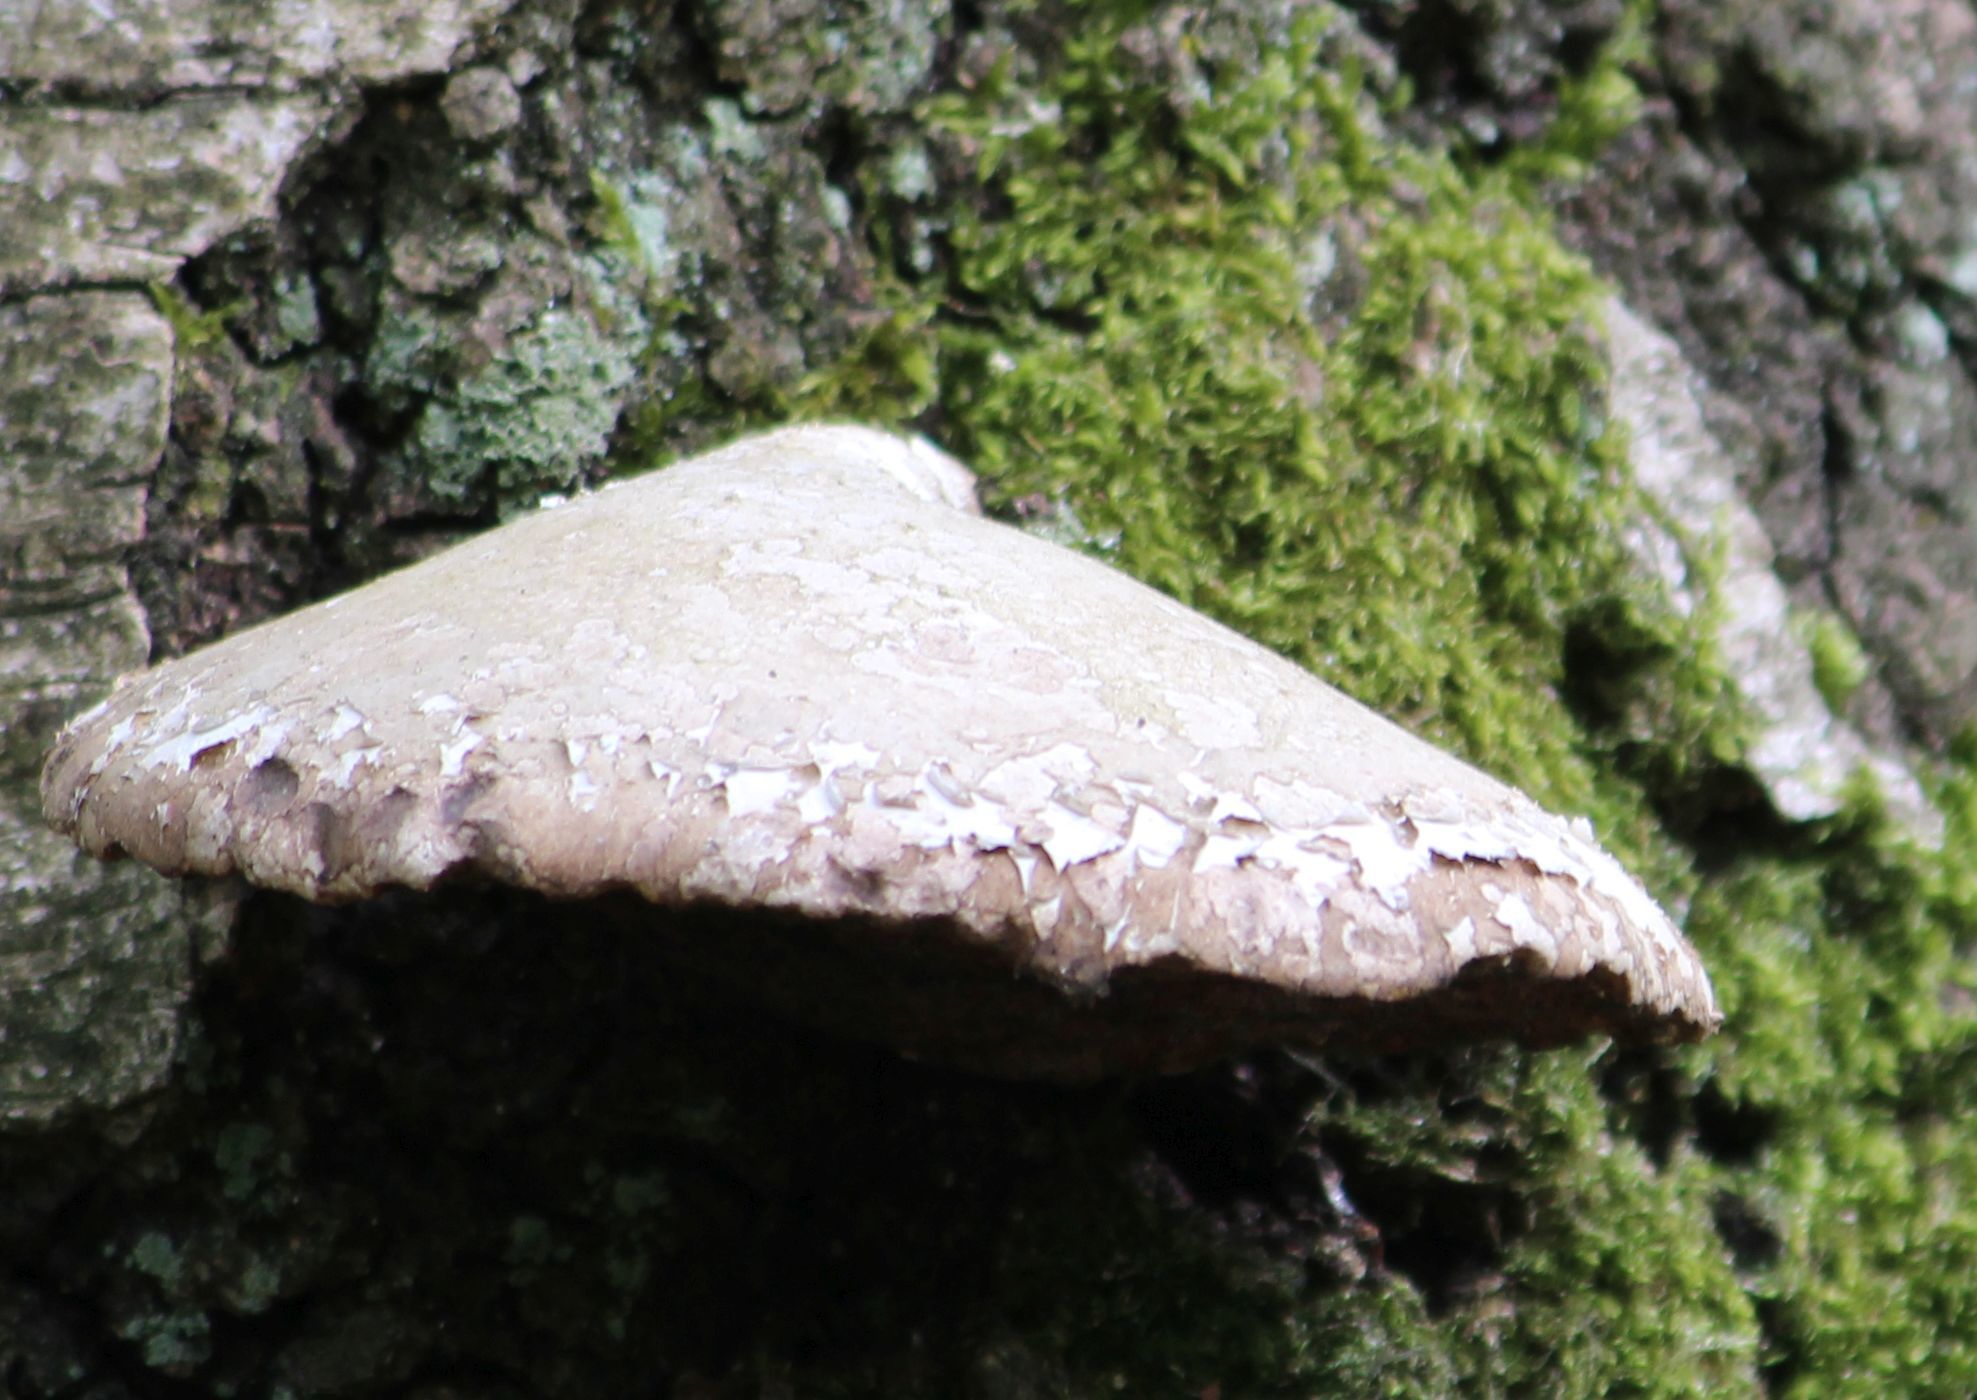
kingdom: Fungi
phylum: Basidiomycota
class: Agaricomycetes
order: Polyporales
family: Fomitopsidaceae
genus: Fomitopsis
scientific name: Fomitopsis betulina
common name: Birch polypore
